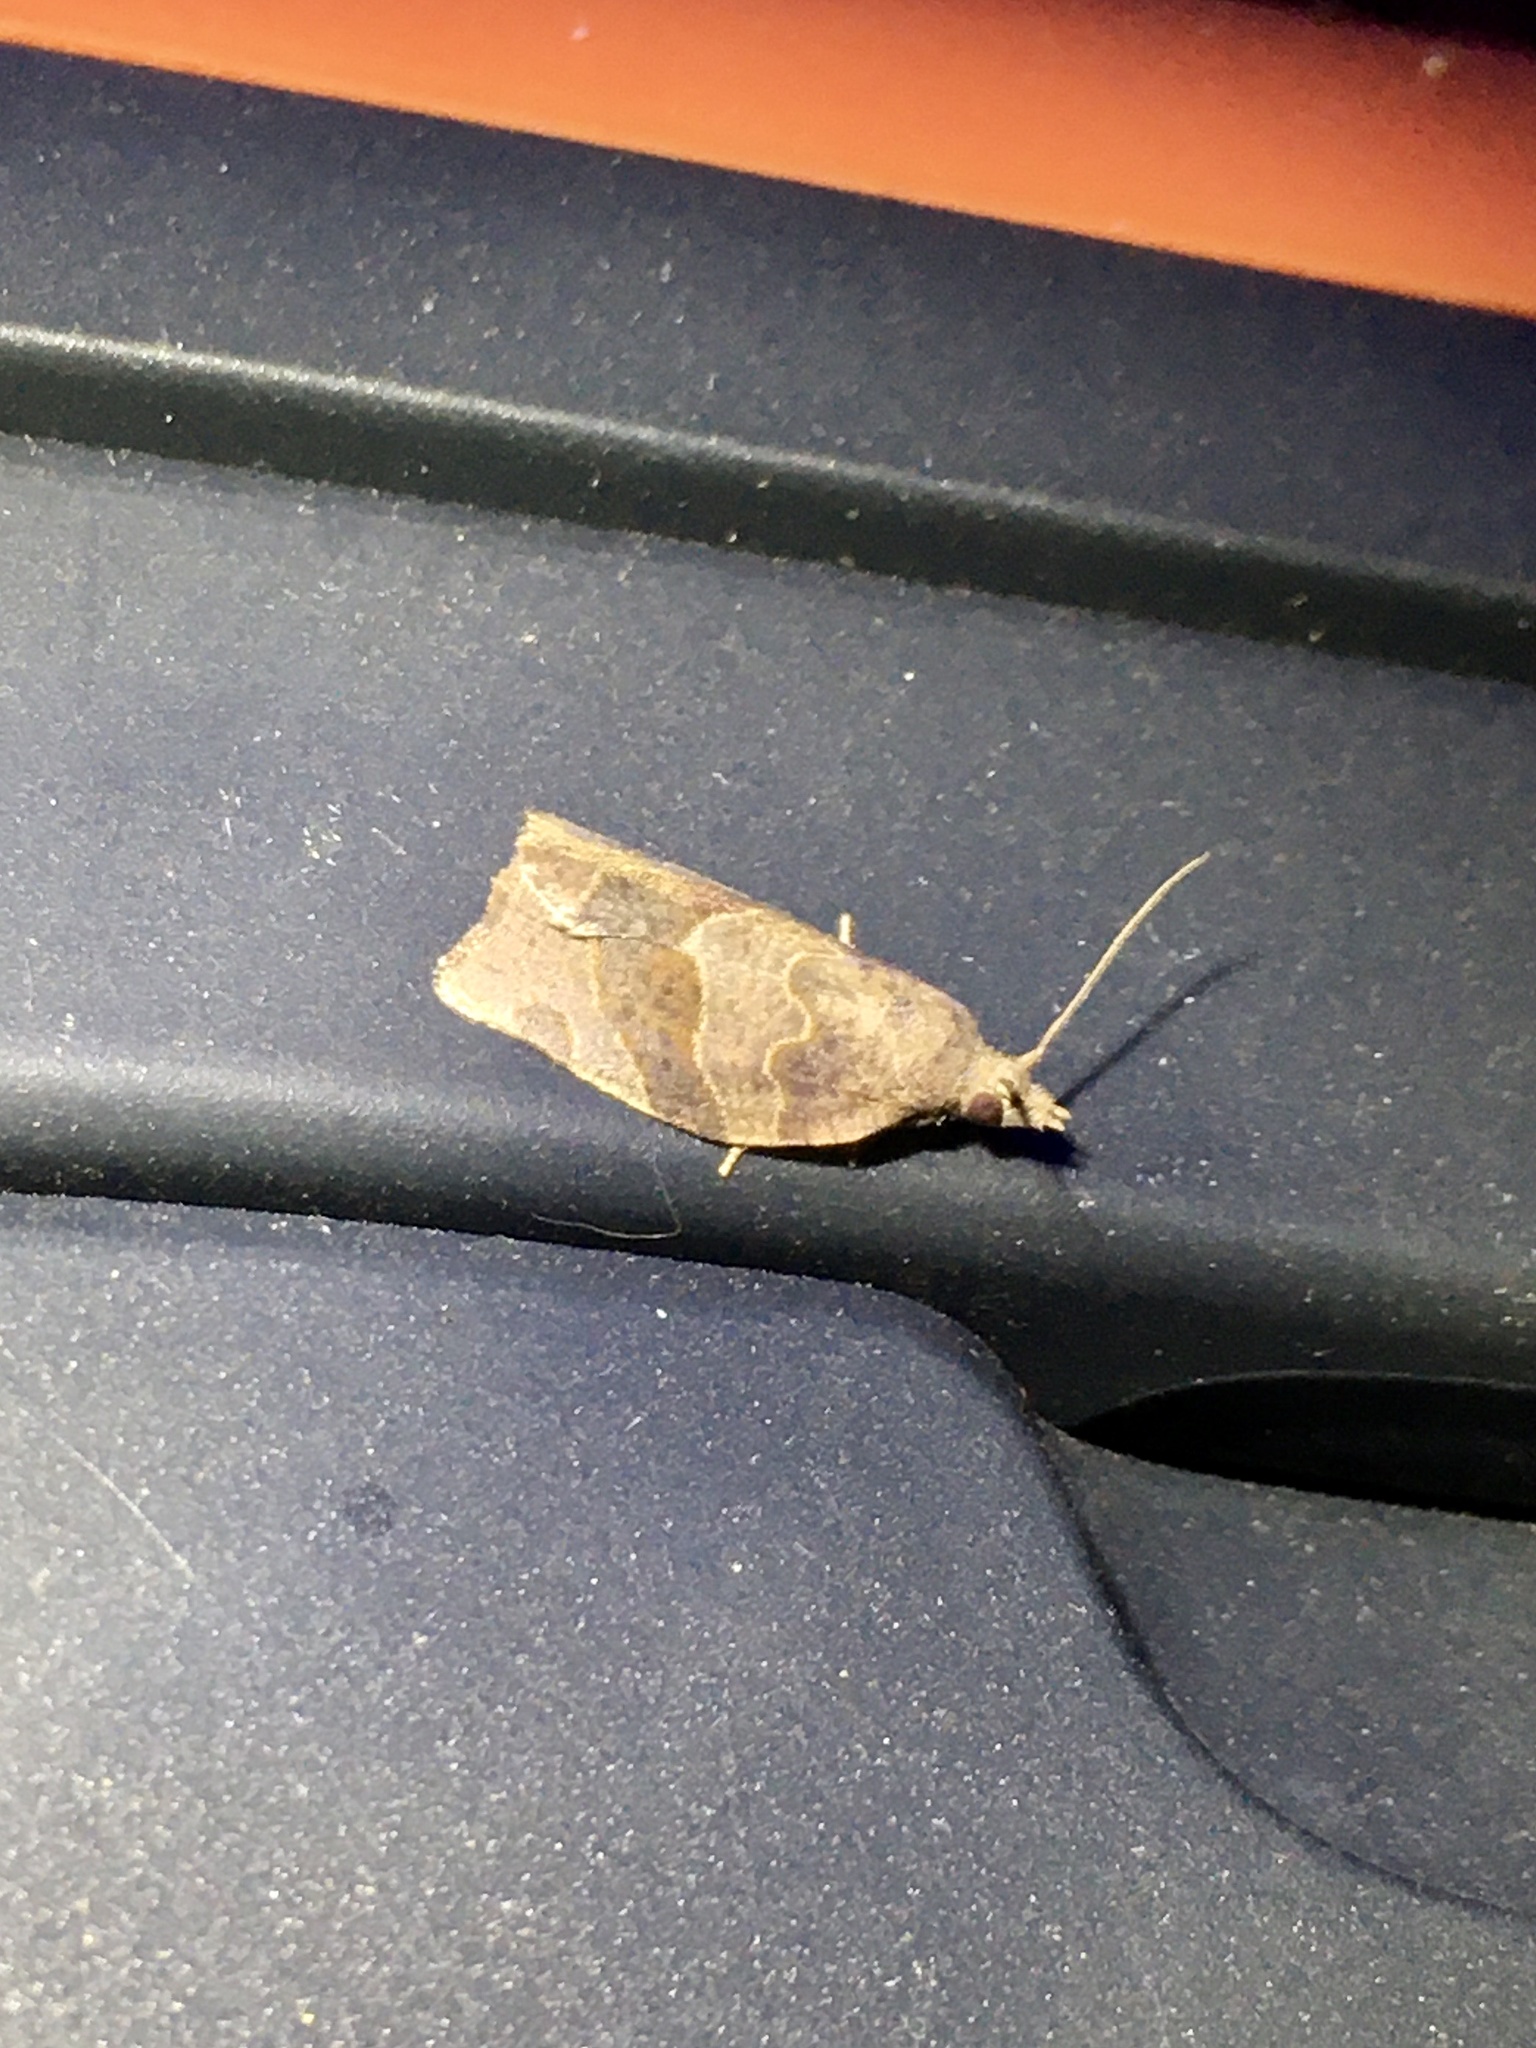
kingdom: Animalia
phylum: Arthropoda
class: Insecta
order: Lepidoptera
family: Tortricidae
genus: Pandemis
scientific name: Pandemis canadana
